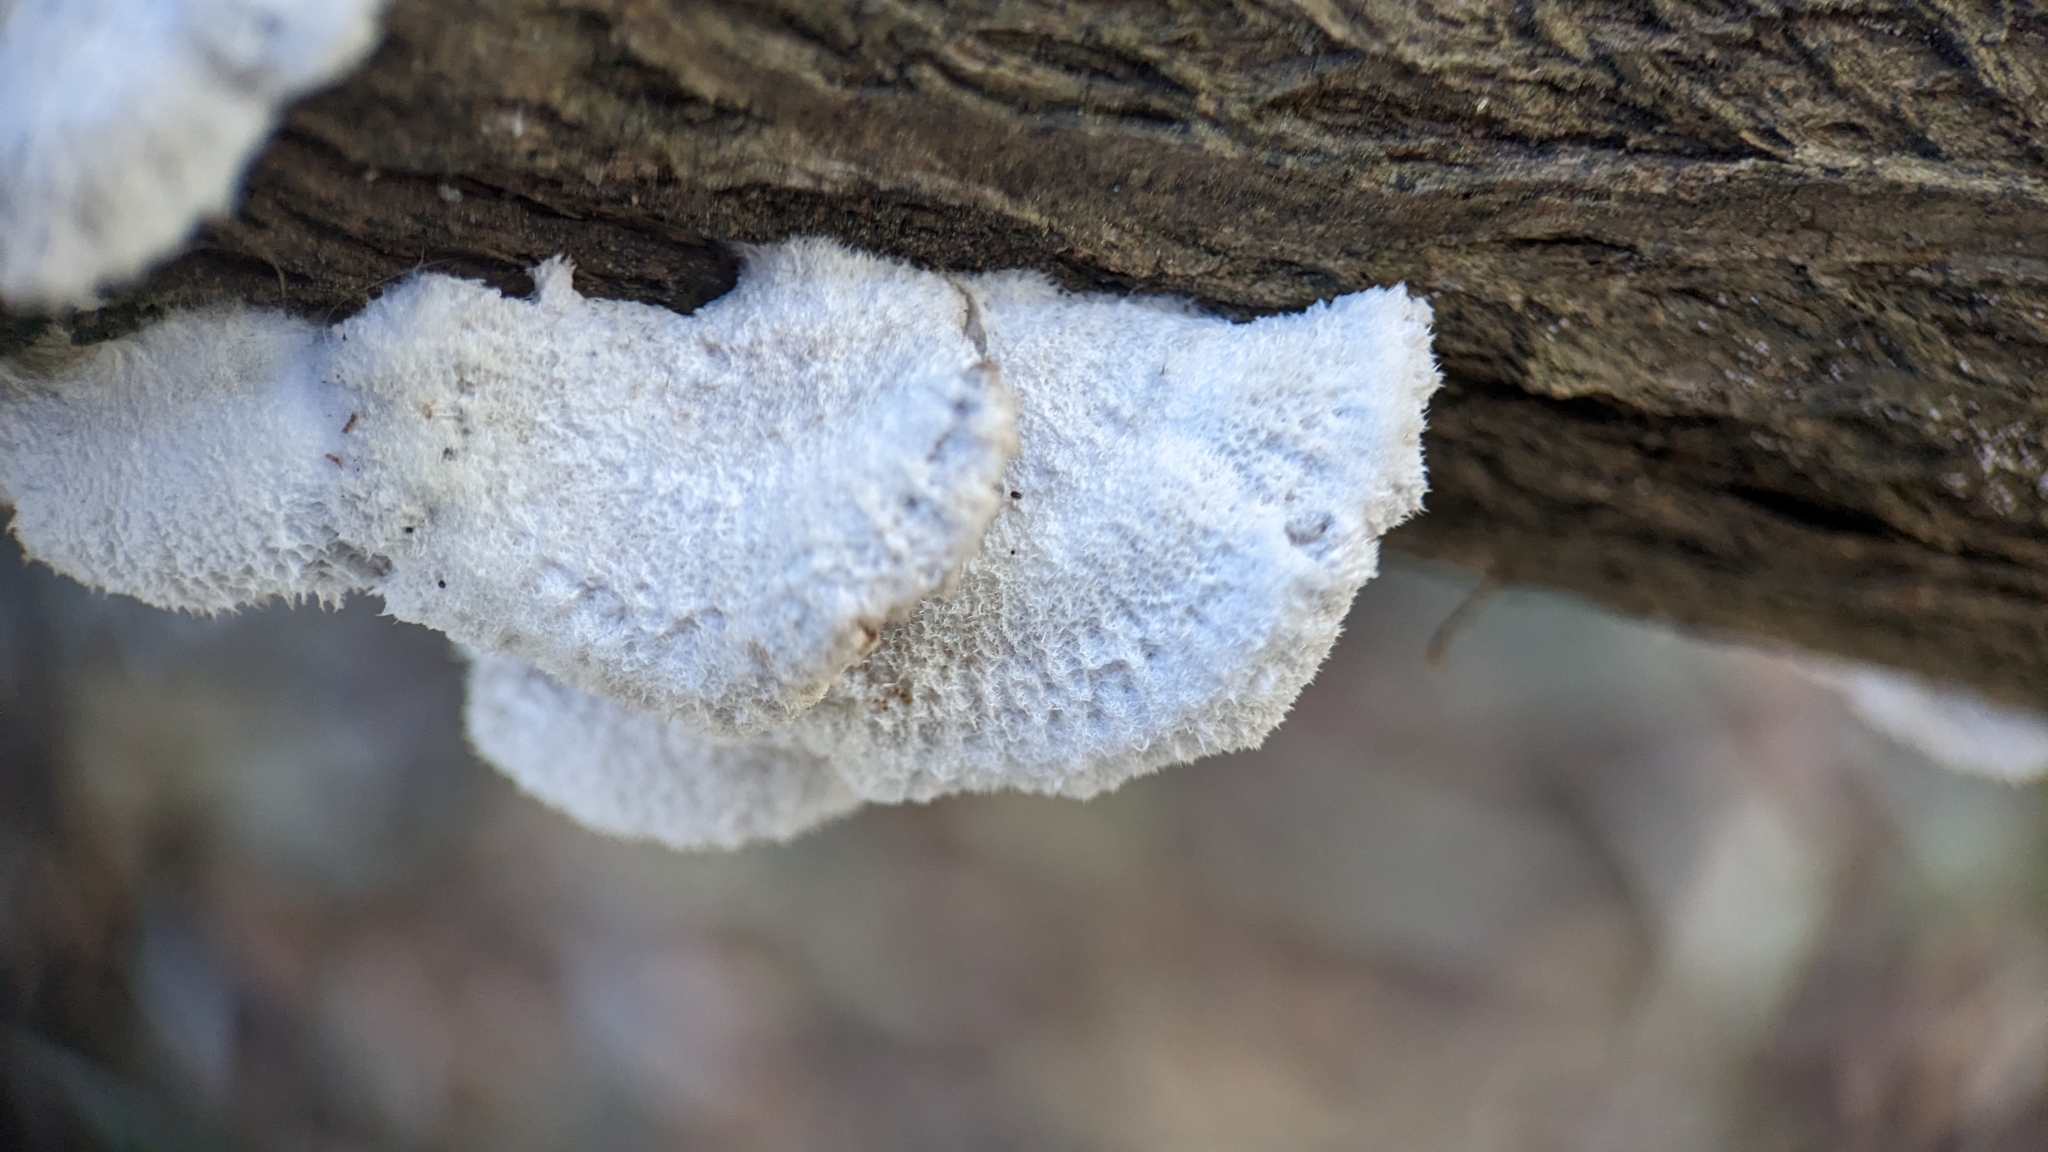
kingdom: Fungi
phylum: Basidiomycota
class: Agaricomycetes
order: Agaricales
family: Schizophyllaceae
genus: Schizophyllum
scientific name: Schizophyllum commune
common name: Common porecrust
